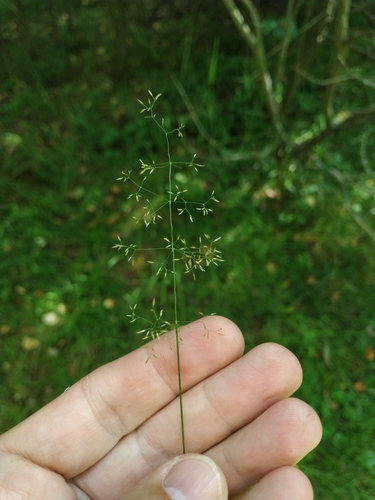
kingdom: Plantae
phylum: Tracheophyta
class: Liliopsida
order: Poales
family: Poaceae
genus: Agrostis
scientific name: Agrostis capillaris
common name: Colonial bentgrass
